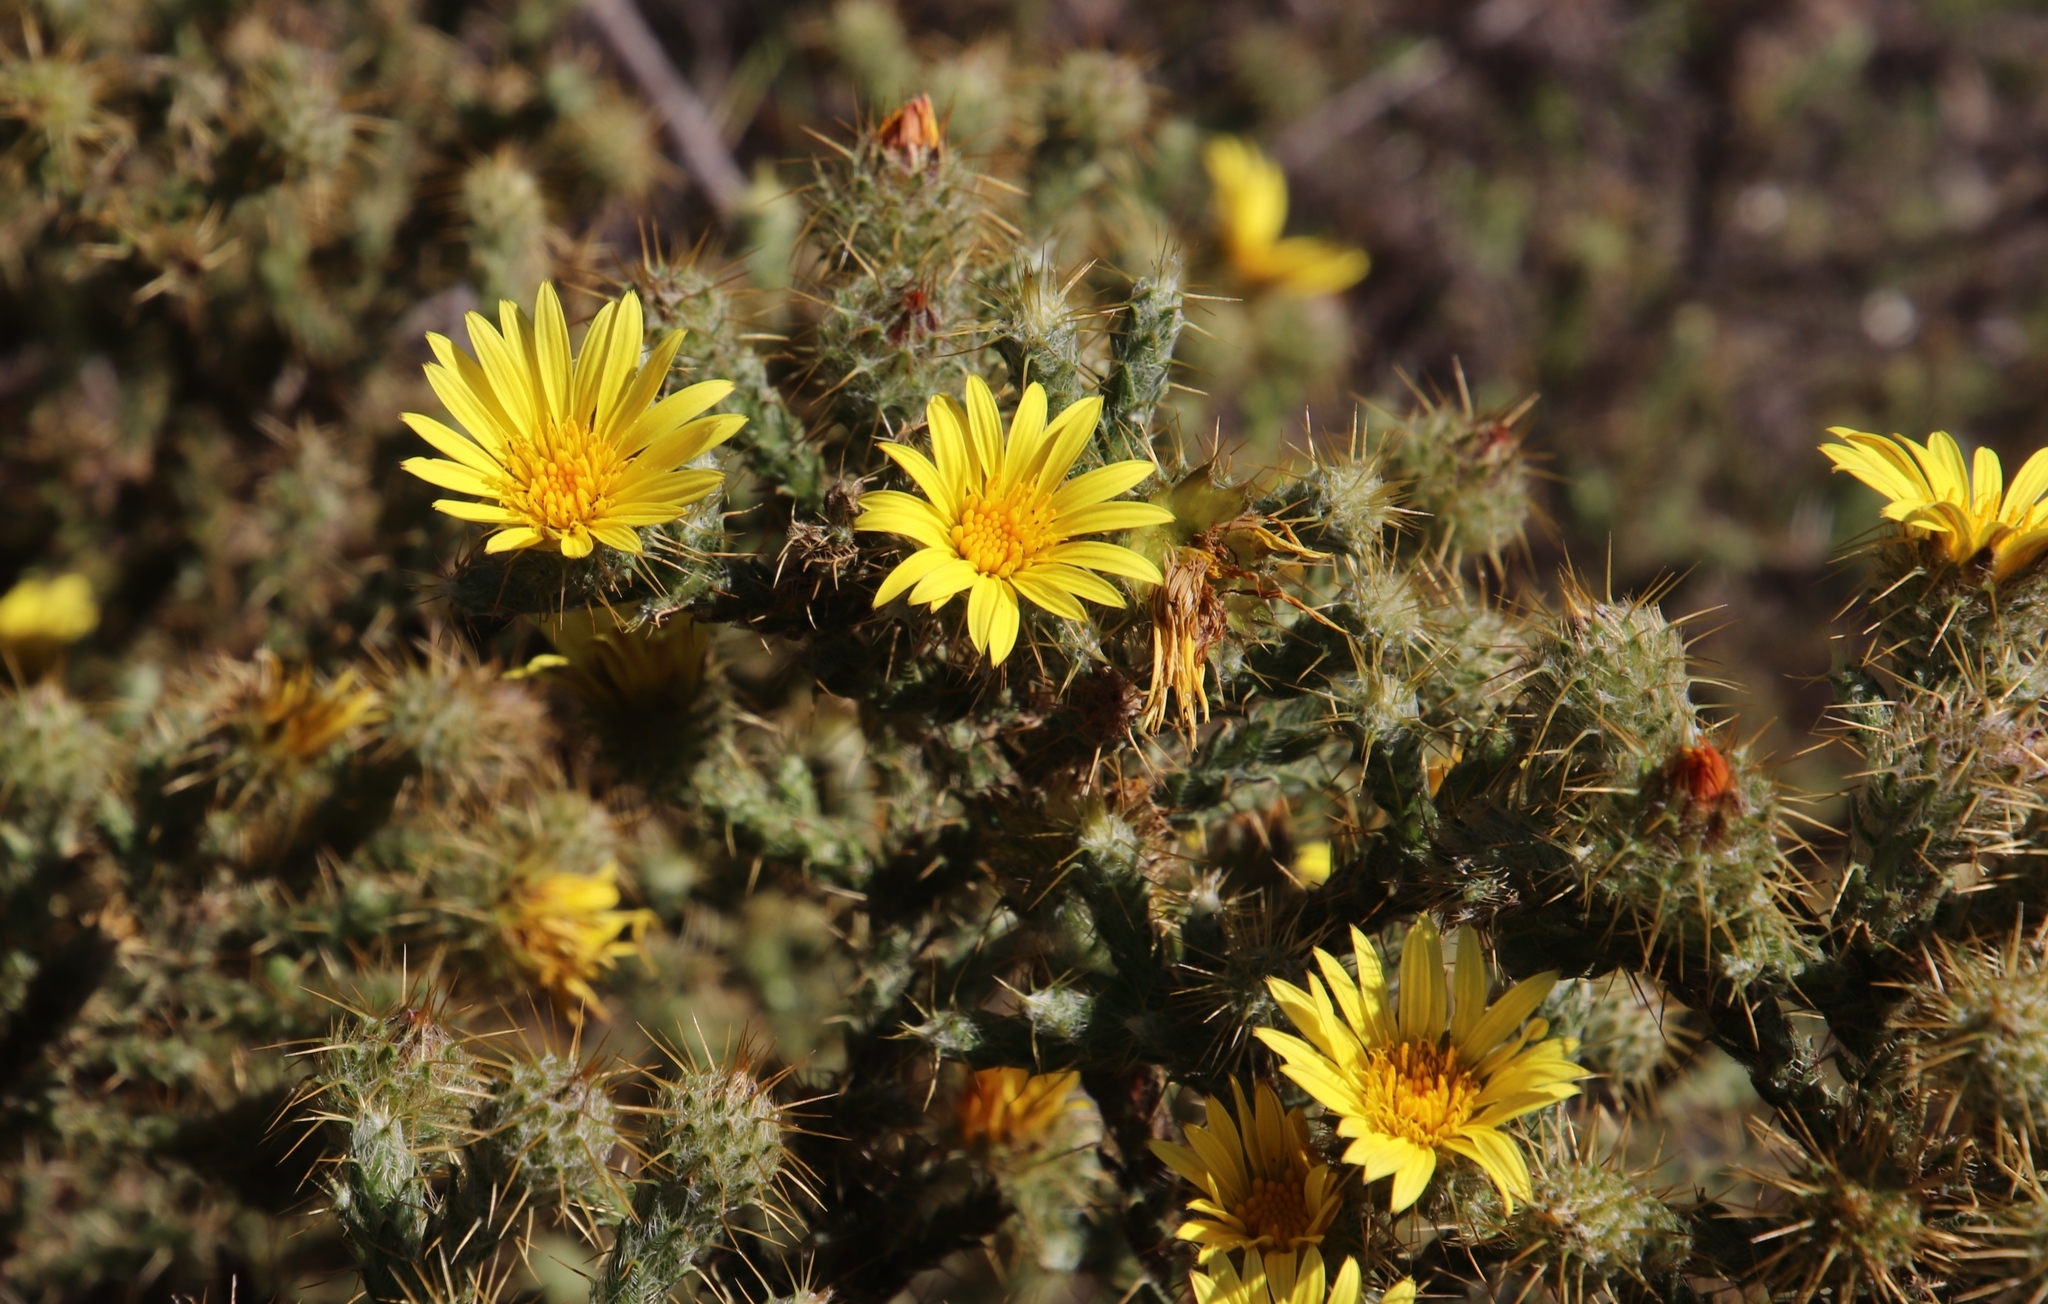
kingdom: Plantae
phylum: Tracheophyta
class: Magnoliopsida
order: Asterales
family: Asteraceae
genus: Cullumia
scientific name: Cullumia reticulata
